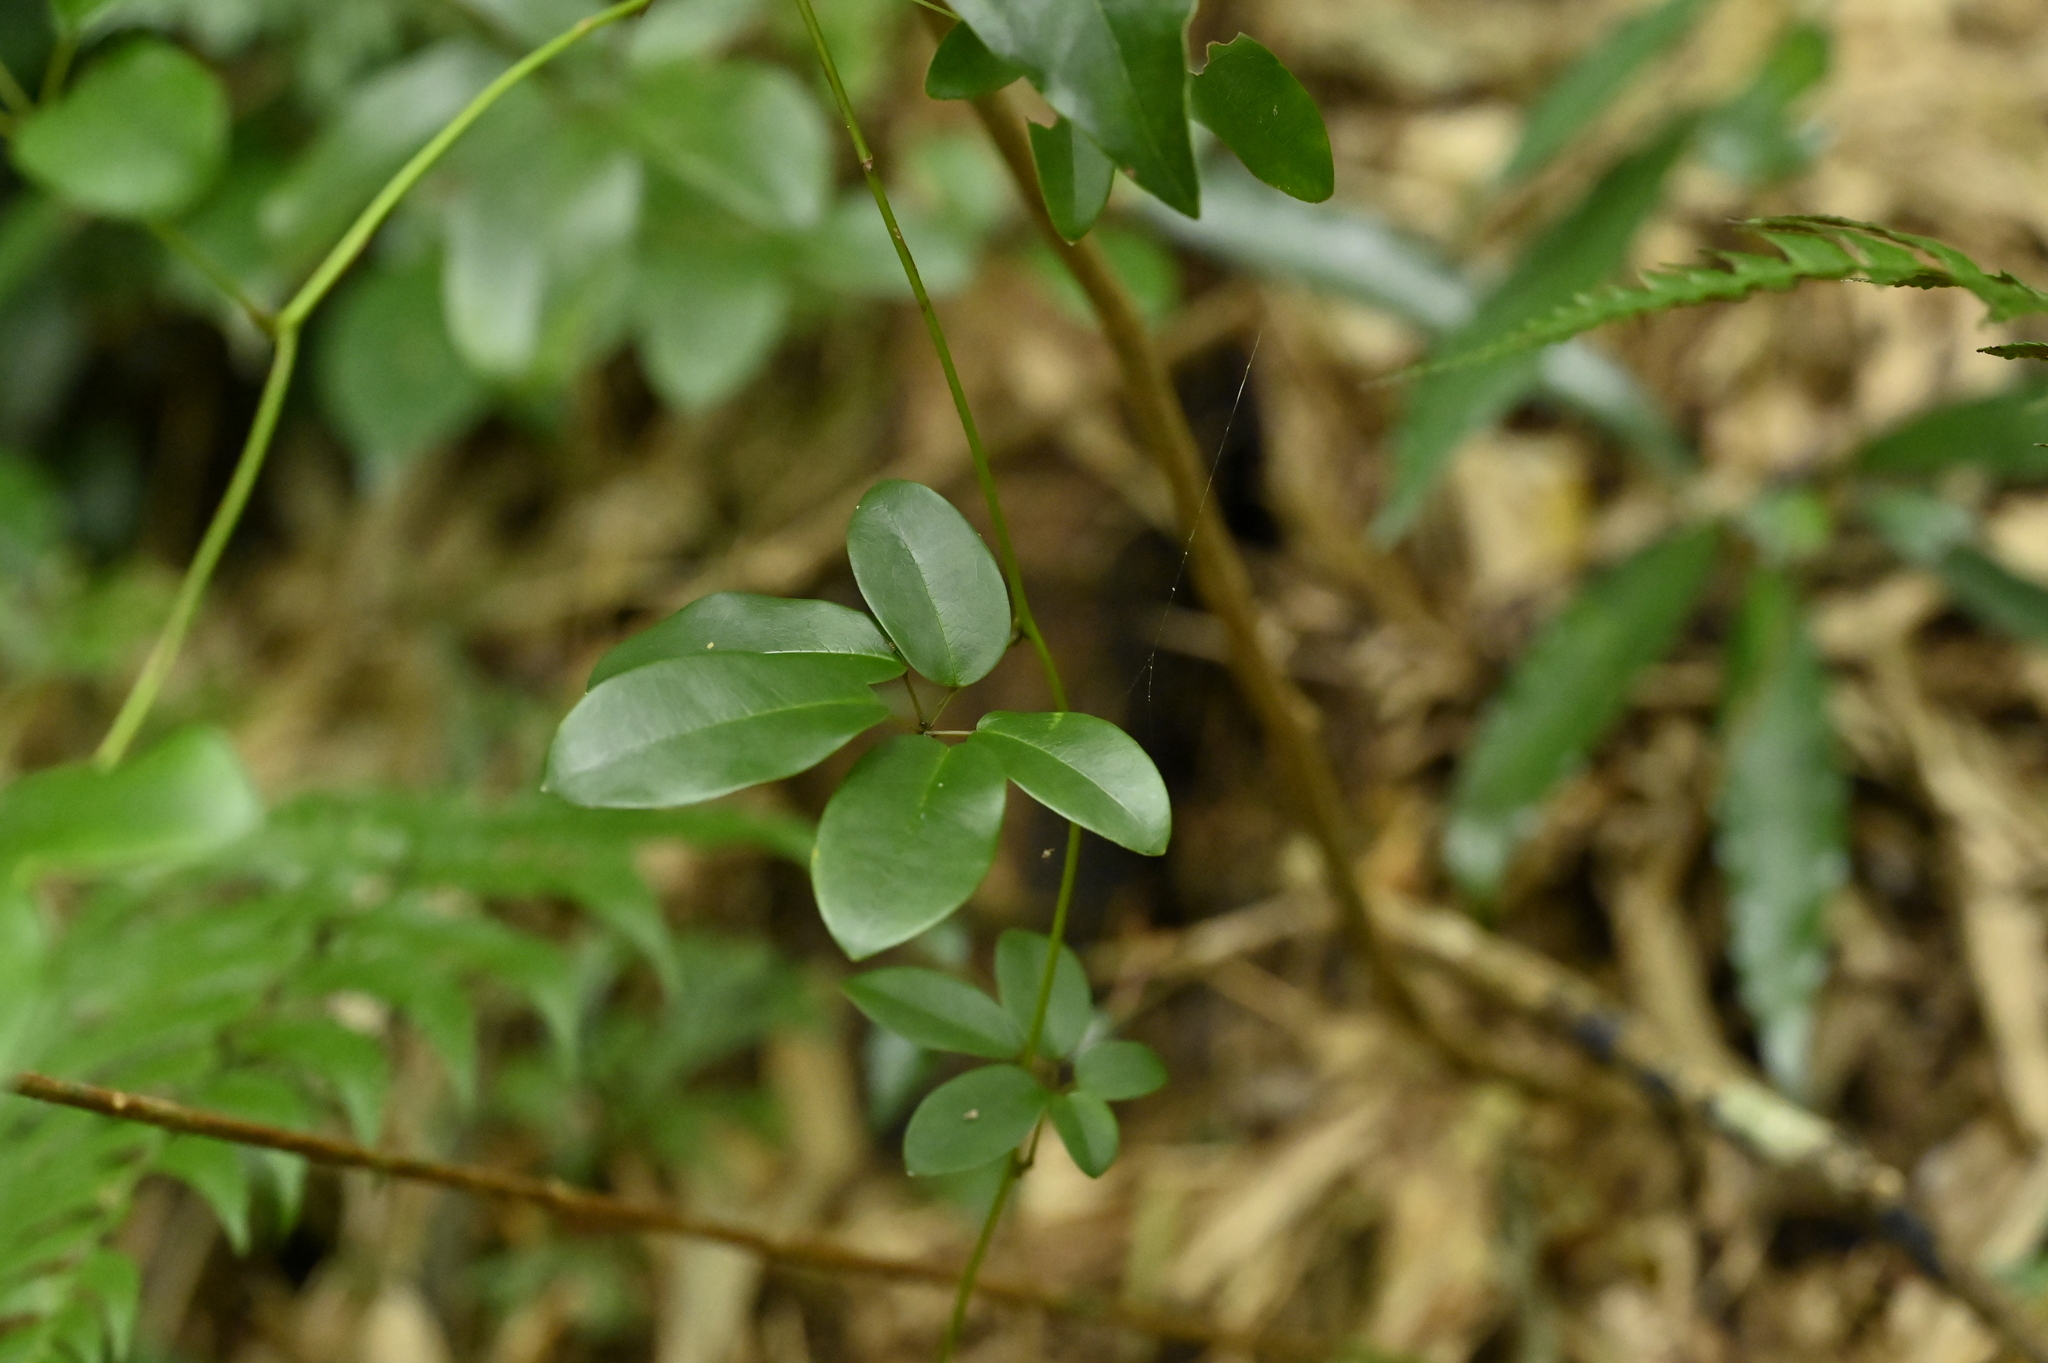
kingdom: Plantae
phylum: Tracheophyta
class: Magnoliopsida
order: Ranunculales
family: Lardizabalaceae
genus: Akebia
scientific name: Akebia longeracemosa
